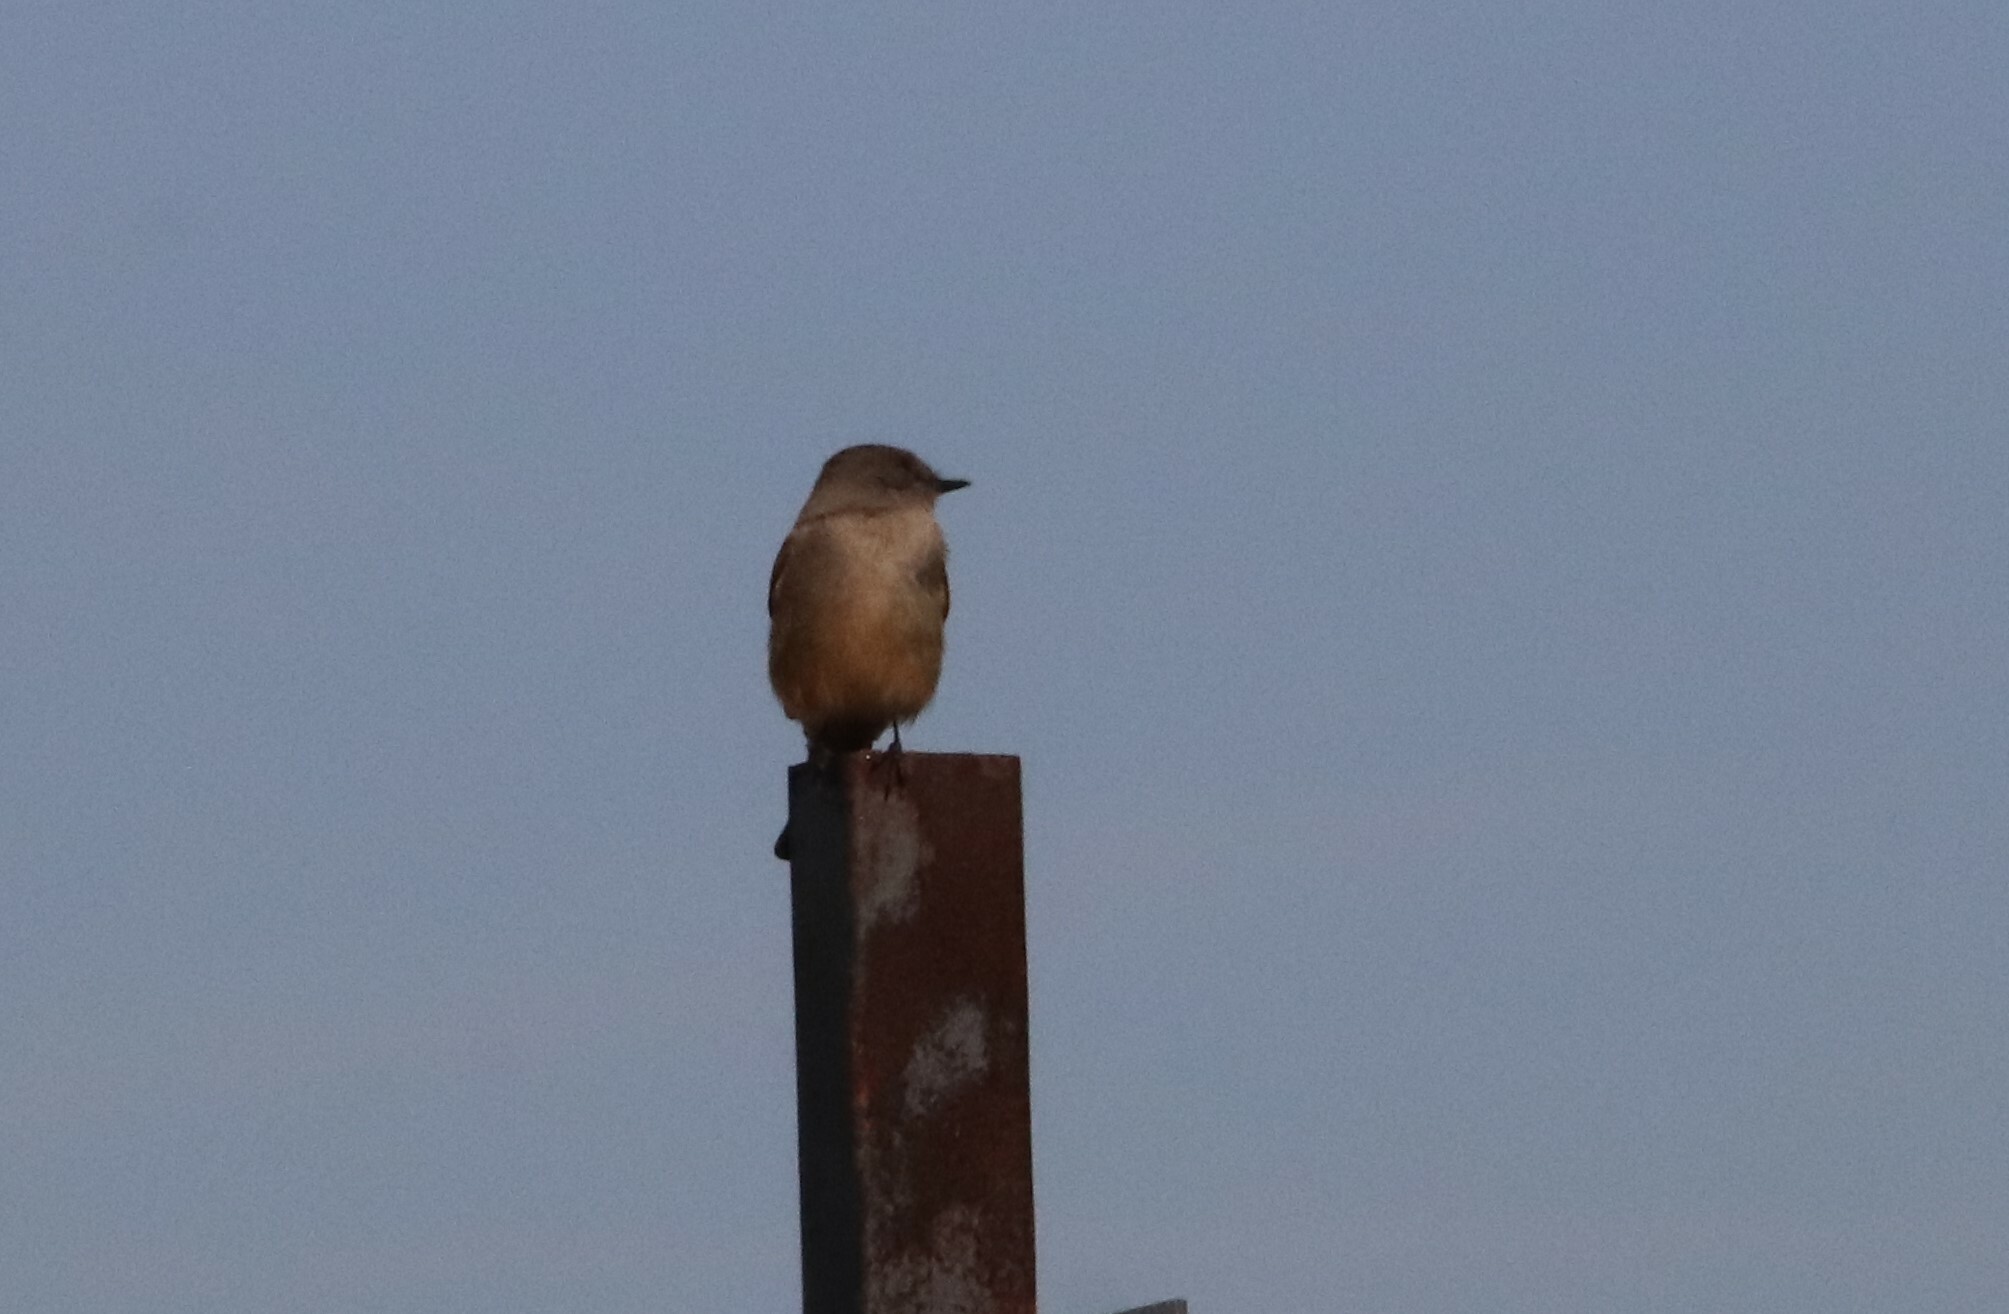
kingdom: Animalia
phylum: Chordata
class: Aves
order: Passeriformes
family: Tyrannidae
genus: Sayornis
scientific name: Sayornis saya
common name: Say's phoebe
